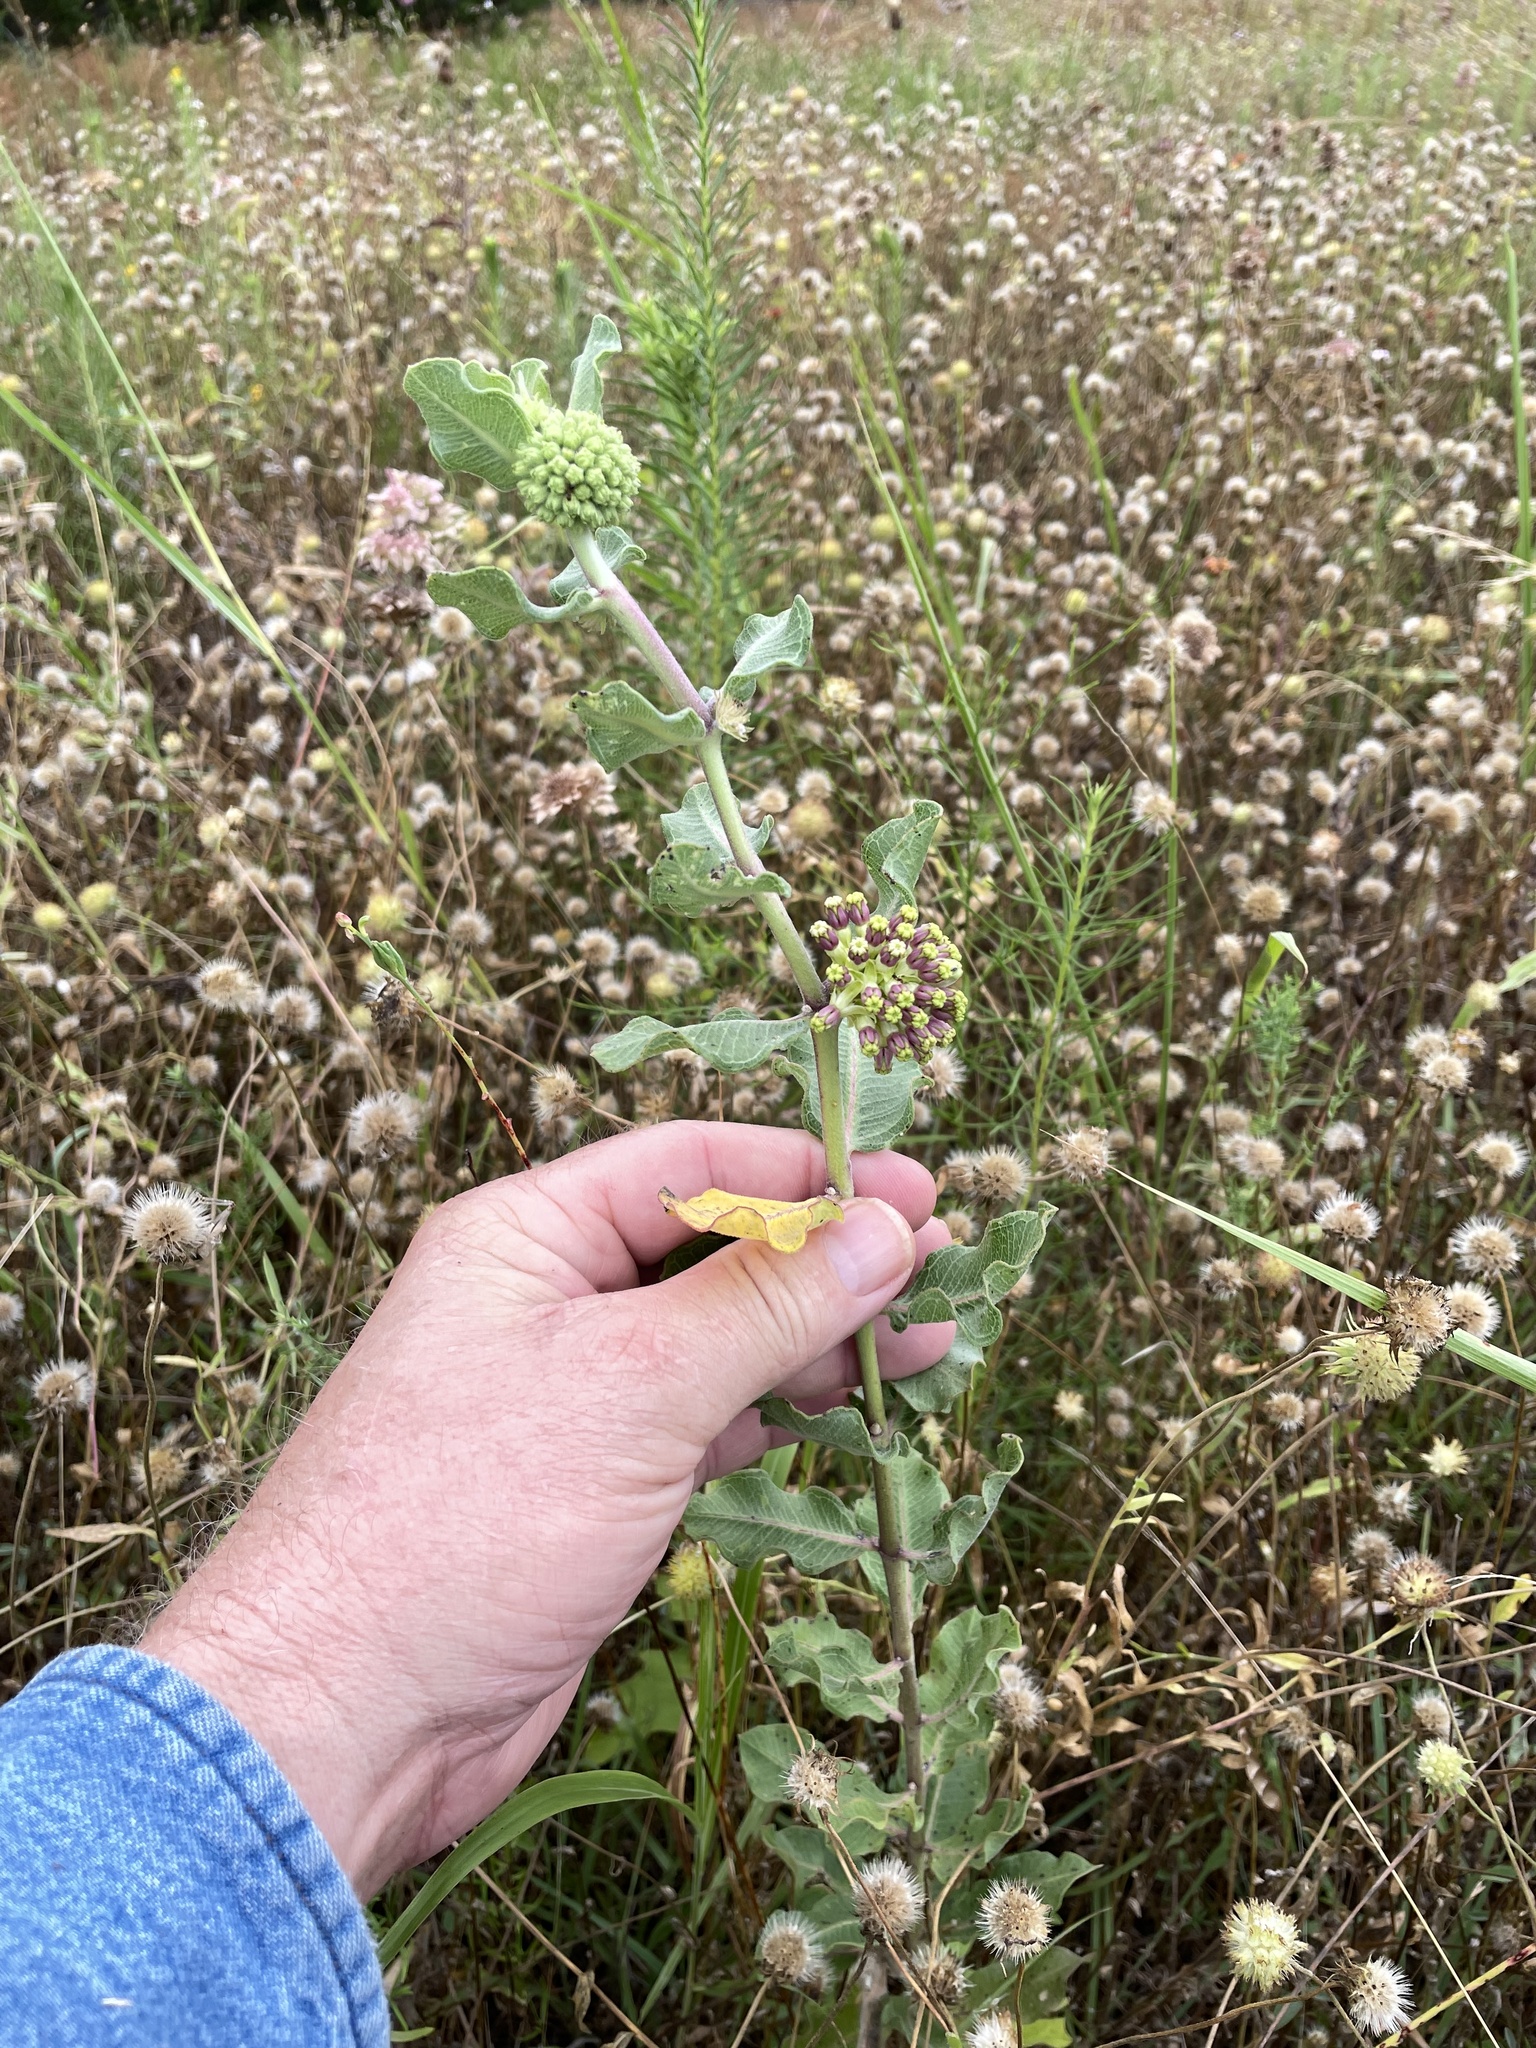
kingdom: Plantae
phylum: Tracheophyta
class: Magnoliopsida
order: Gentianales
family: Apocynaceae
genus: Asclepias
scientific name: Asclepias viridiflora
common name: Green comet milkweed
